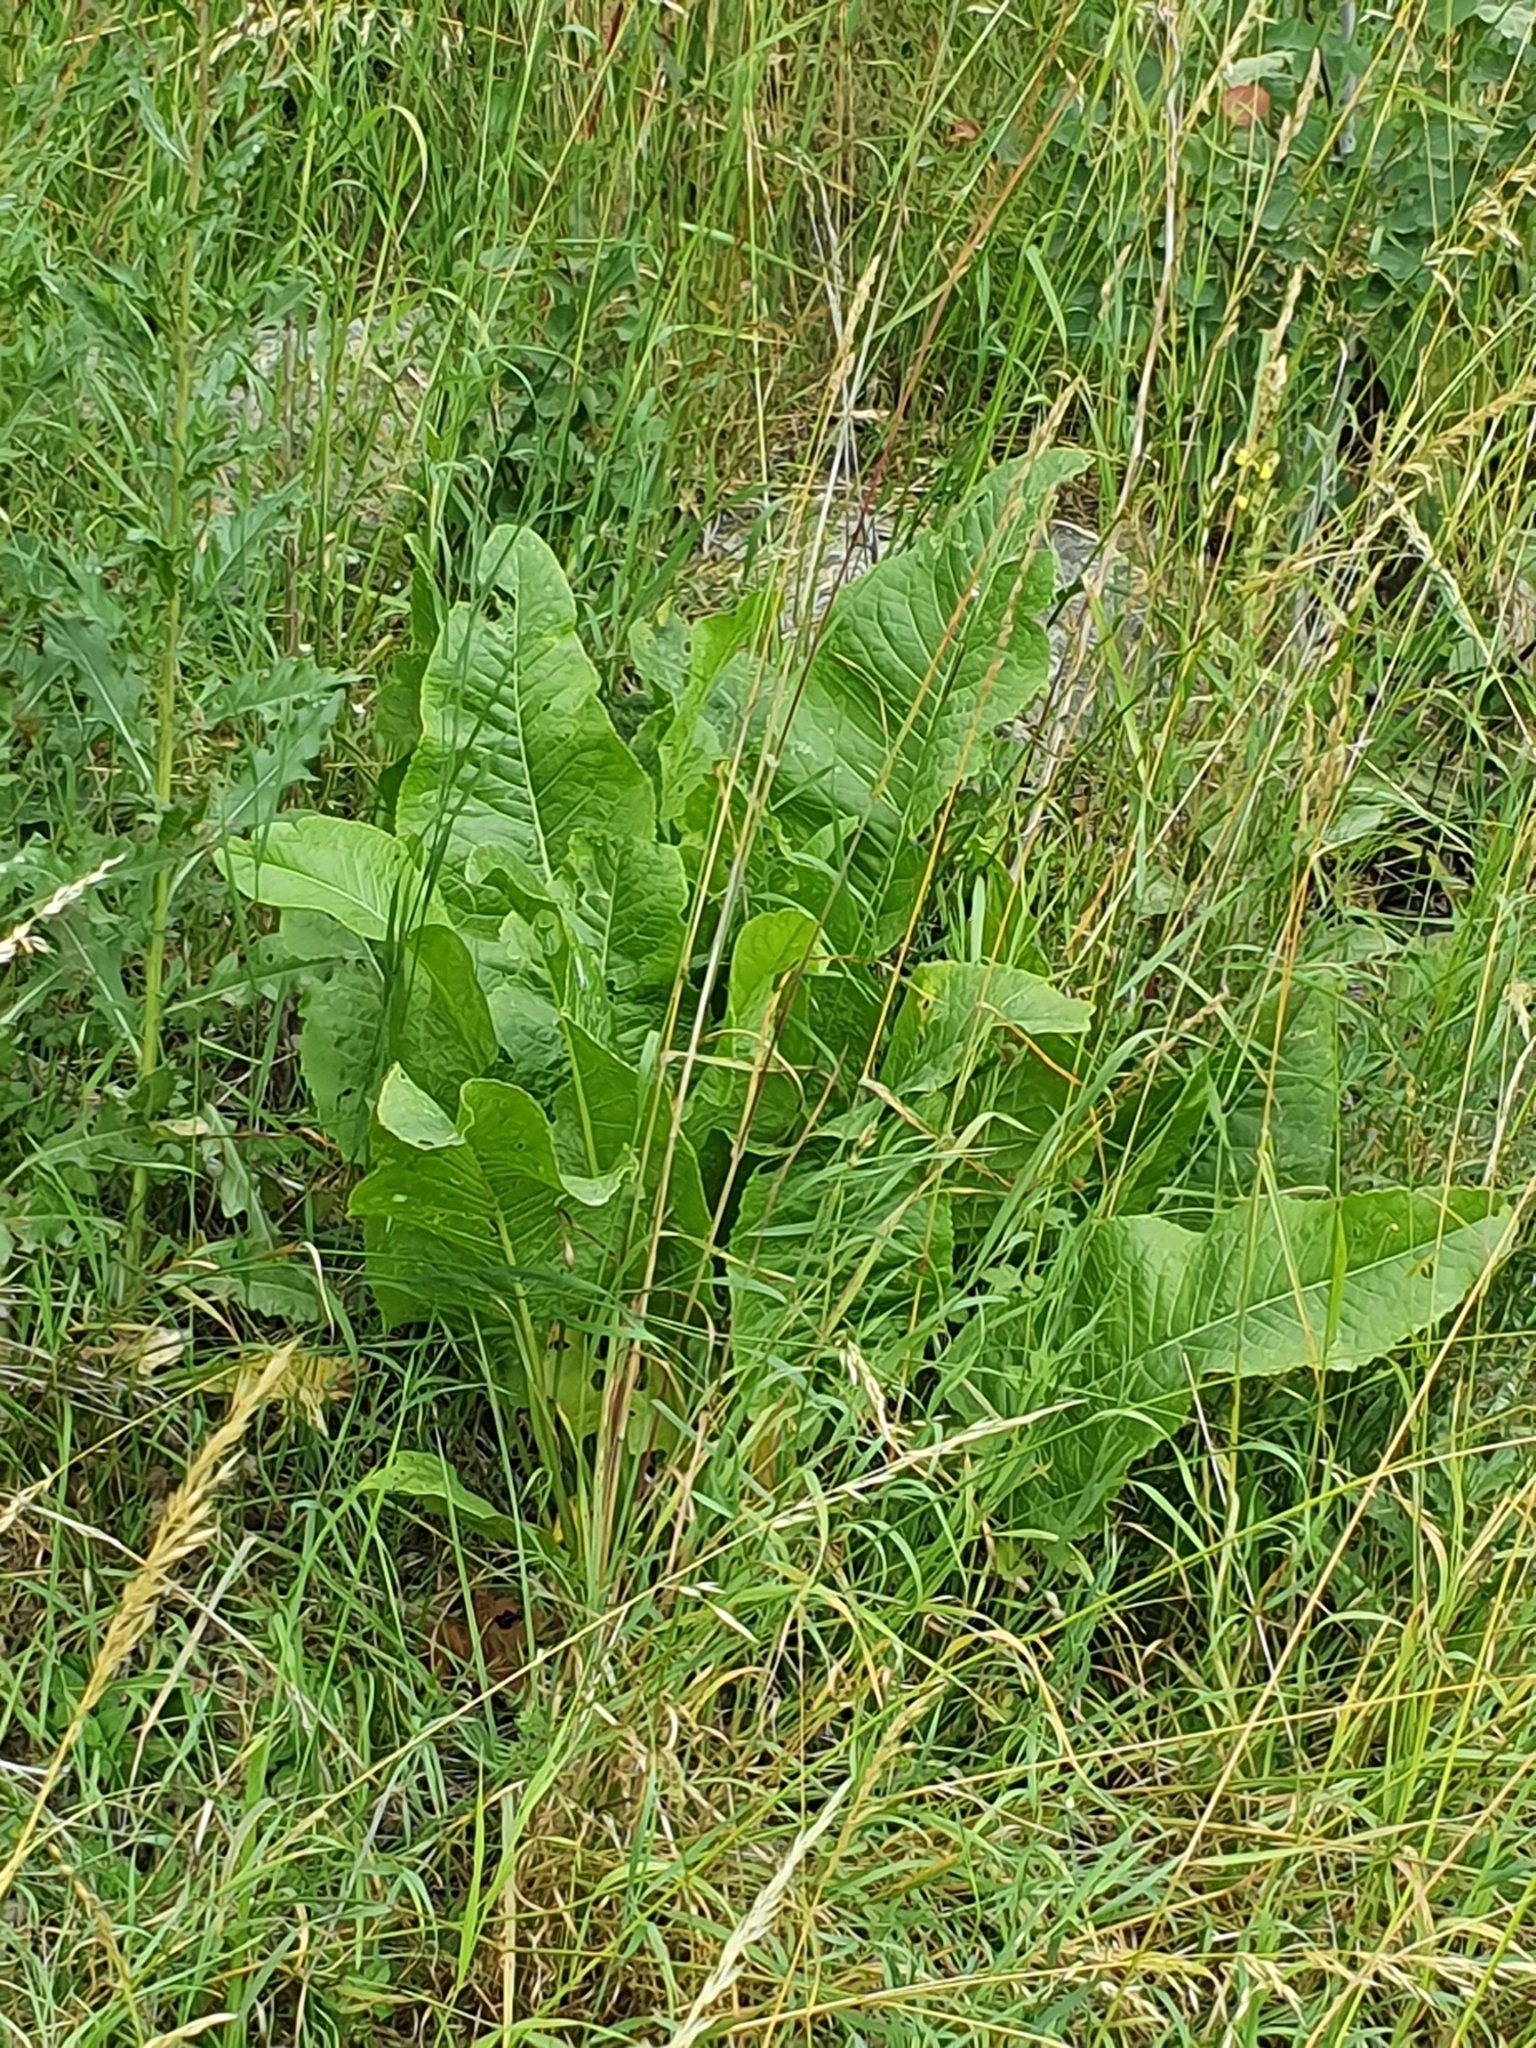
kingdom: Plantae
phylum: Tracheophyta
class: Magnoliopsida
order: Brassicales
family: Brassicaceae
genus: Armoracia
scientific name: Armoracia rusticana
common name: Horseradish
